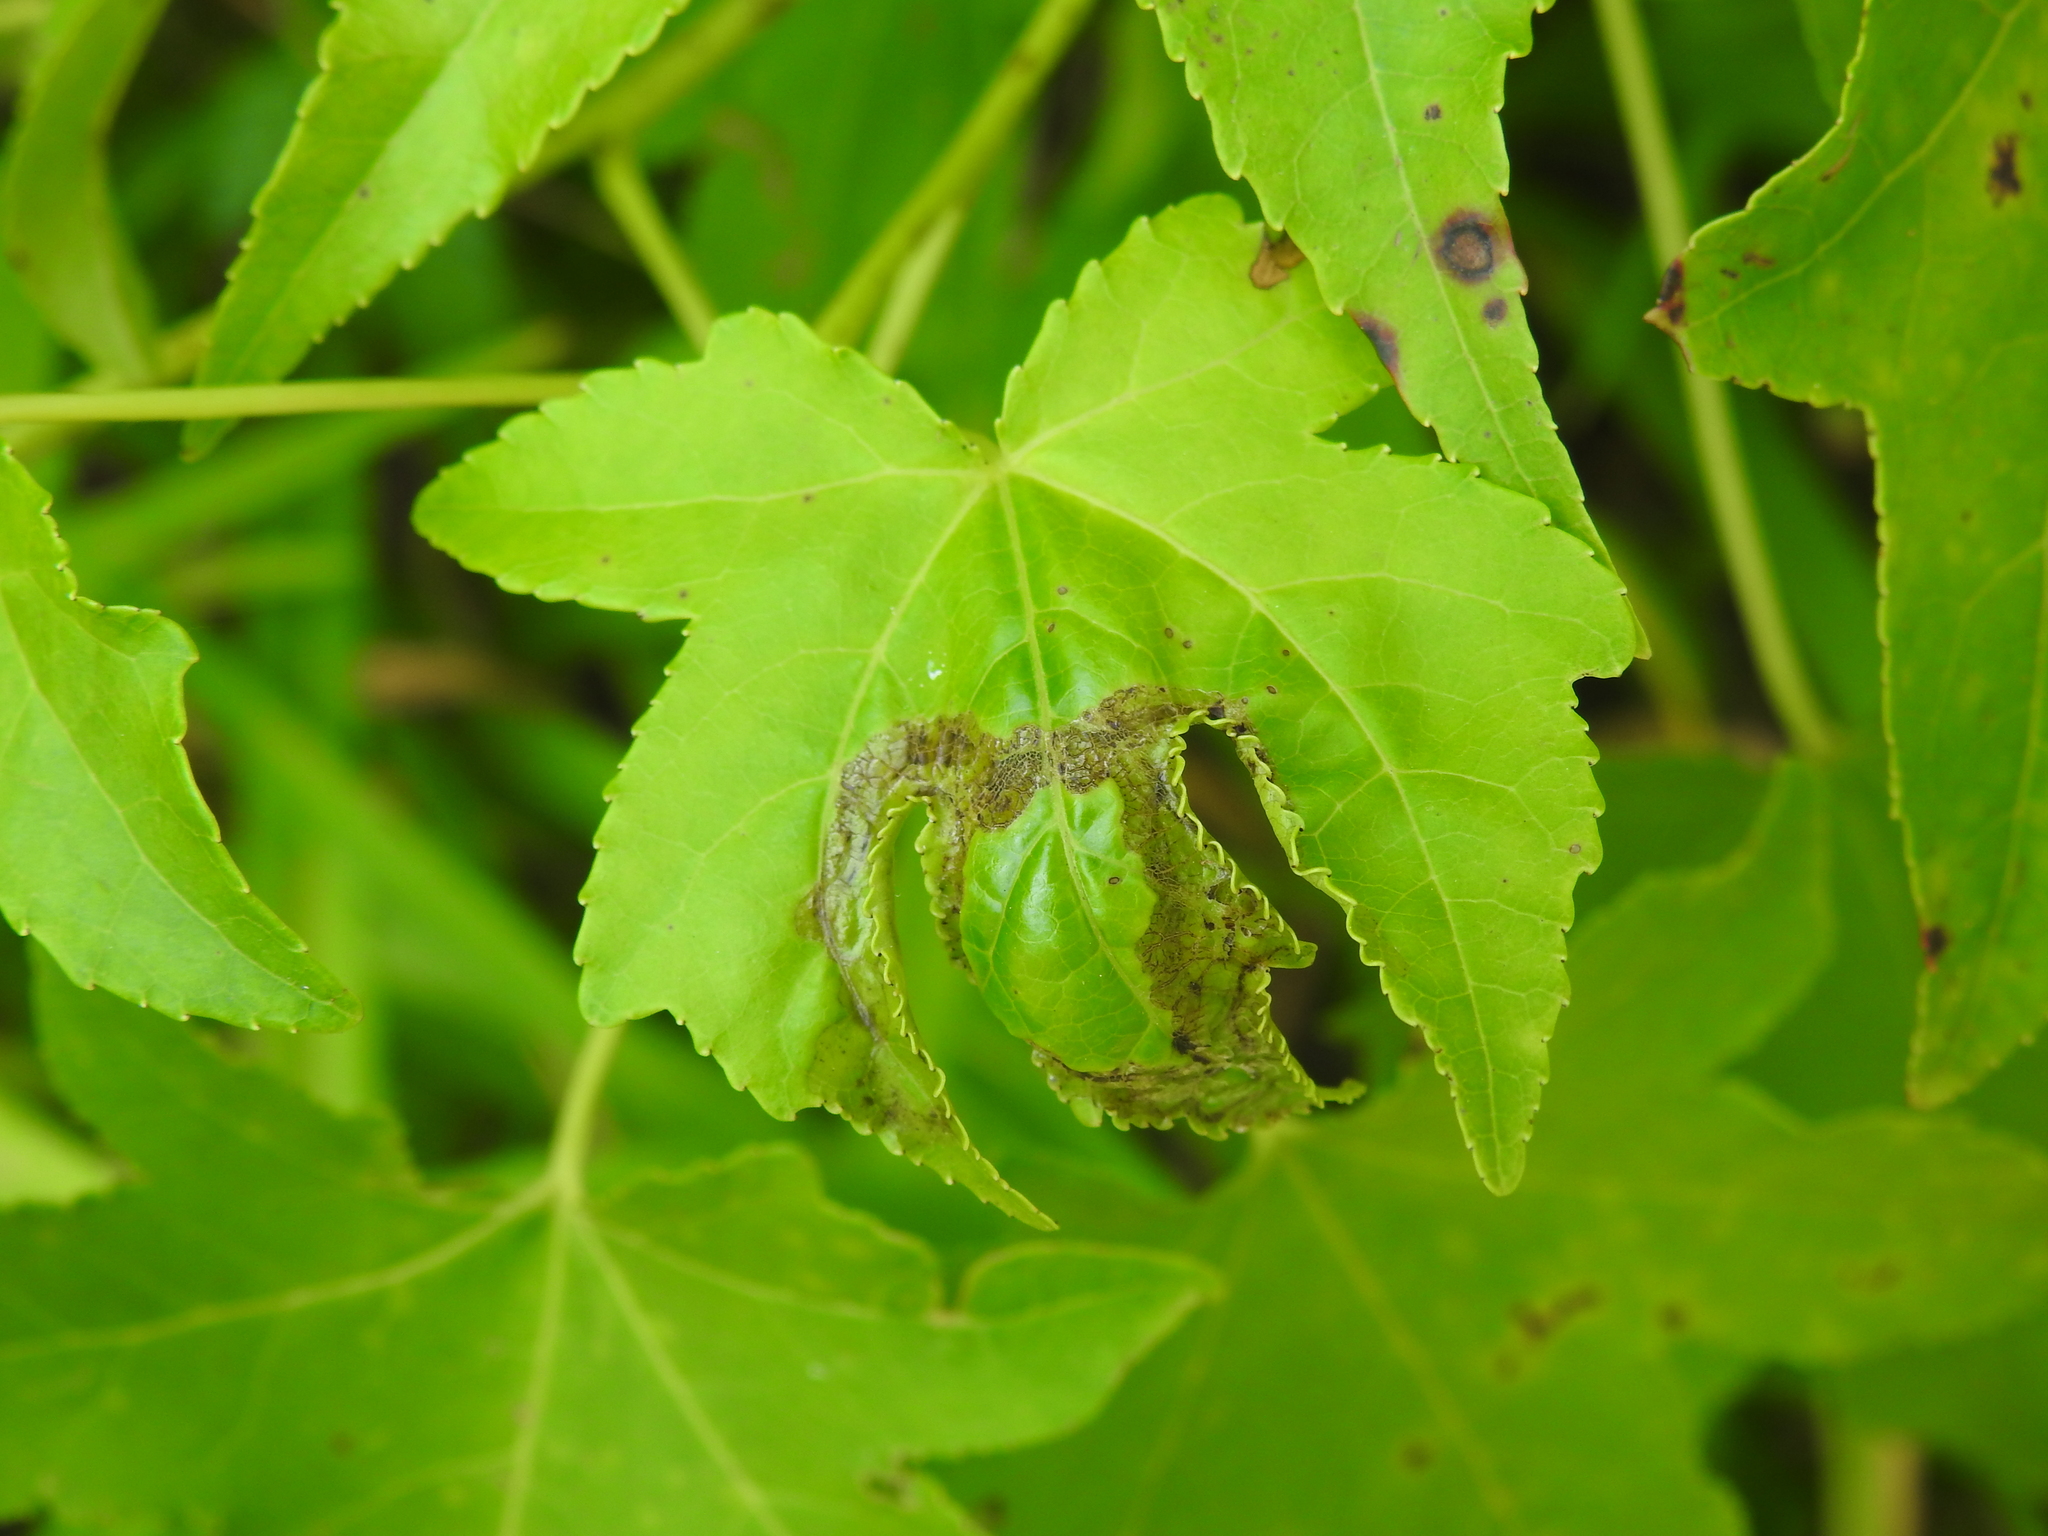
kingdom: Animalia
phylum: Arthropoda
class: Insecta
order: Lepidoptera
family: Gracillariidae
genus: Phyllocnistis
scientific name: Phyllocnistis liquidambarisella
